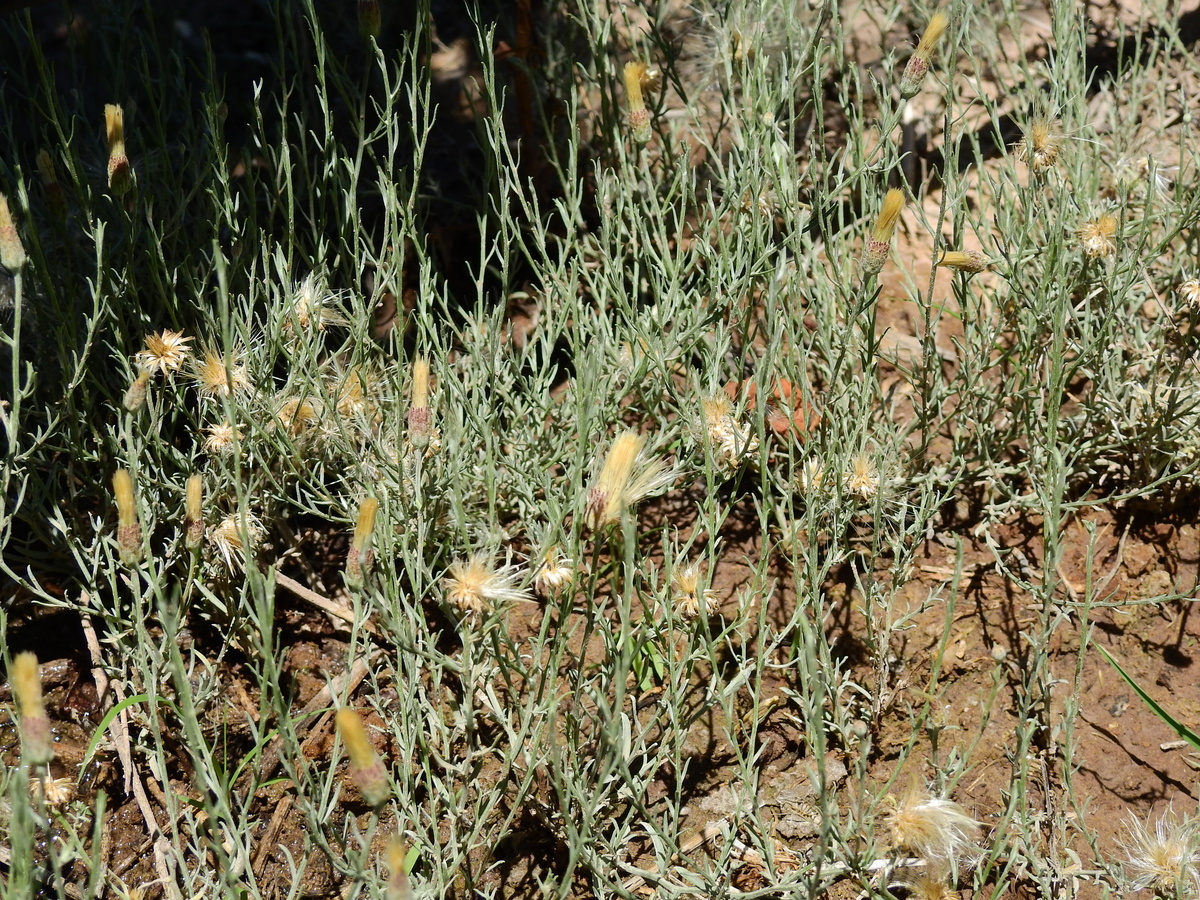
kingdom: Plantae
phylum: Tracheophyta
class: Magnoliopsida
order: Asterales
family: Asteraceae
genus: Pseudobaccharis
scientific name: Pseudobaccharis tenella
